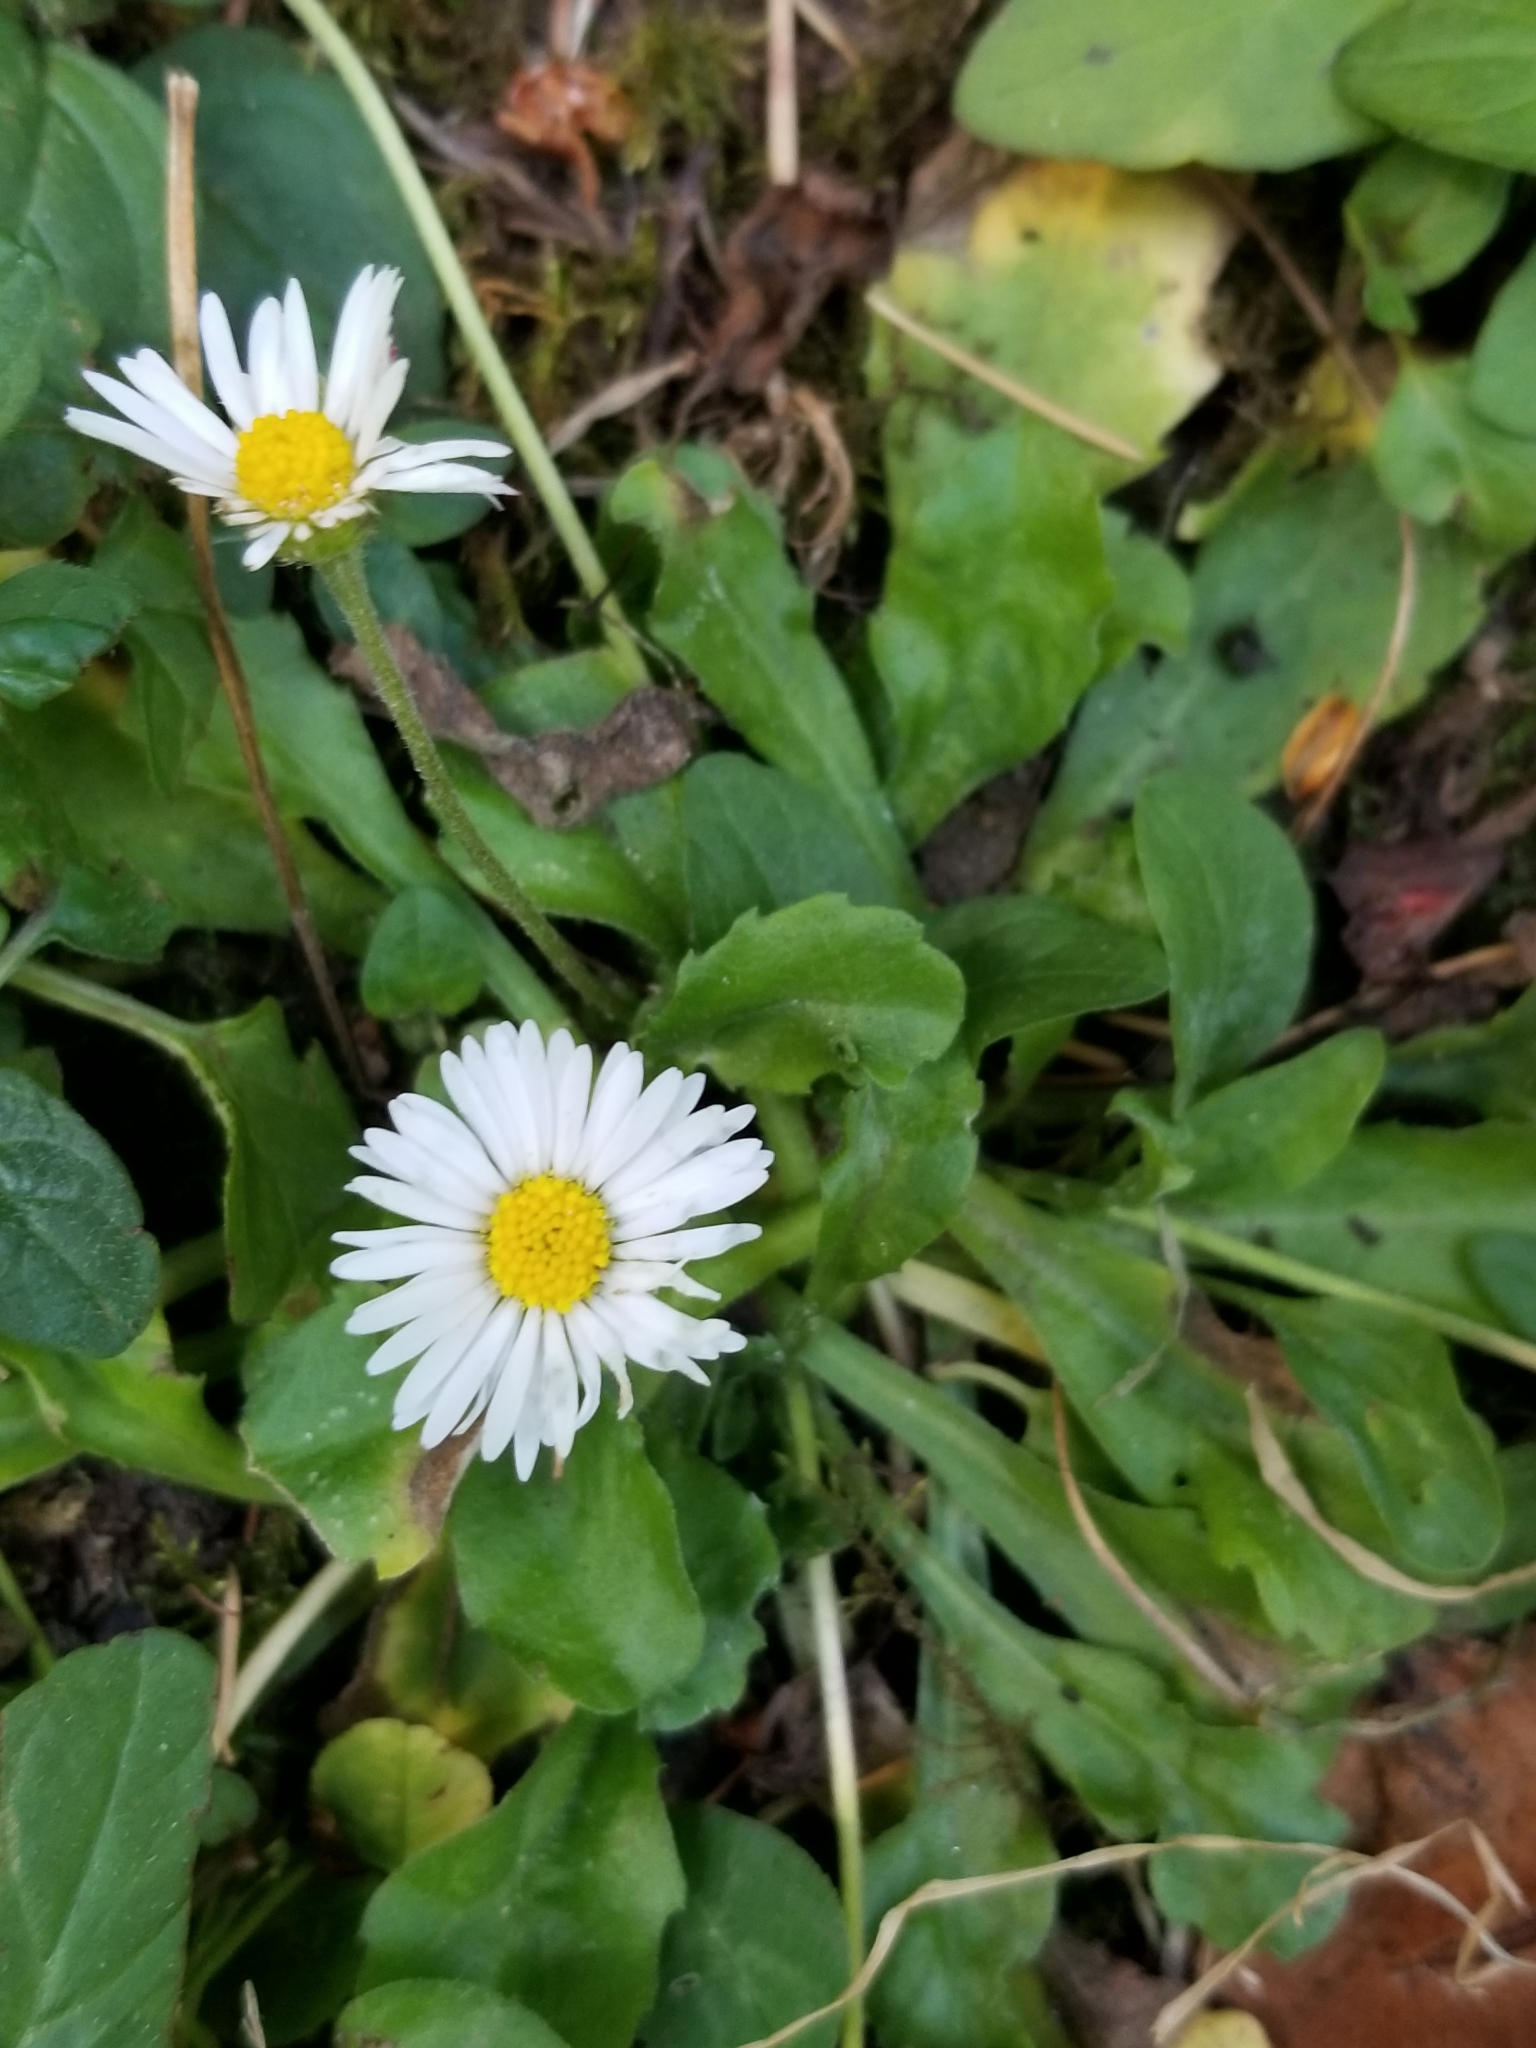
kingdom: Plantae
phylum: Tracheophyta
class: Magnoliopsida
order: Asterales
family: Asteraceae
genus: Bellis
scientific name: Bellis perennis
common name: Lawndaisy
